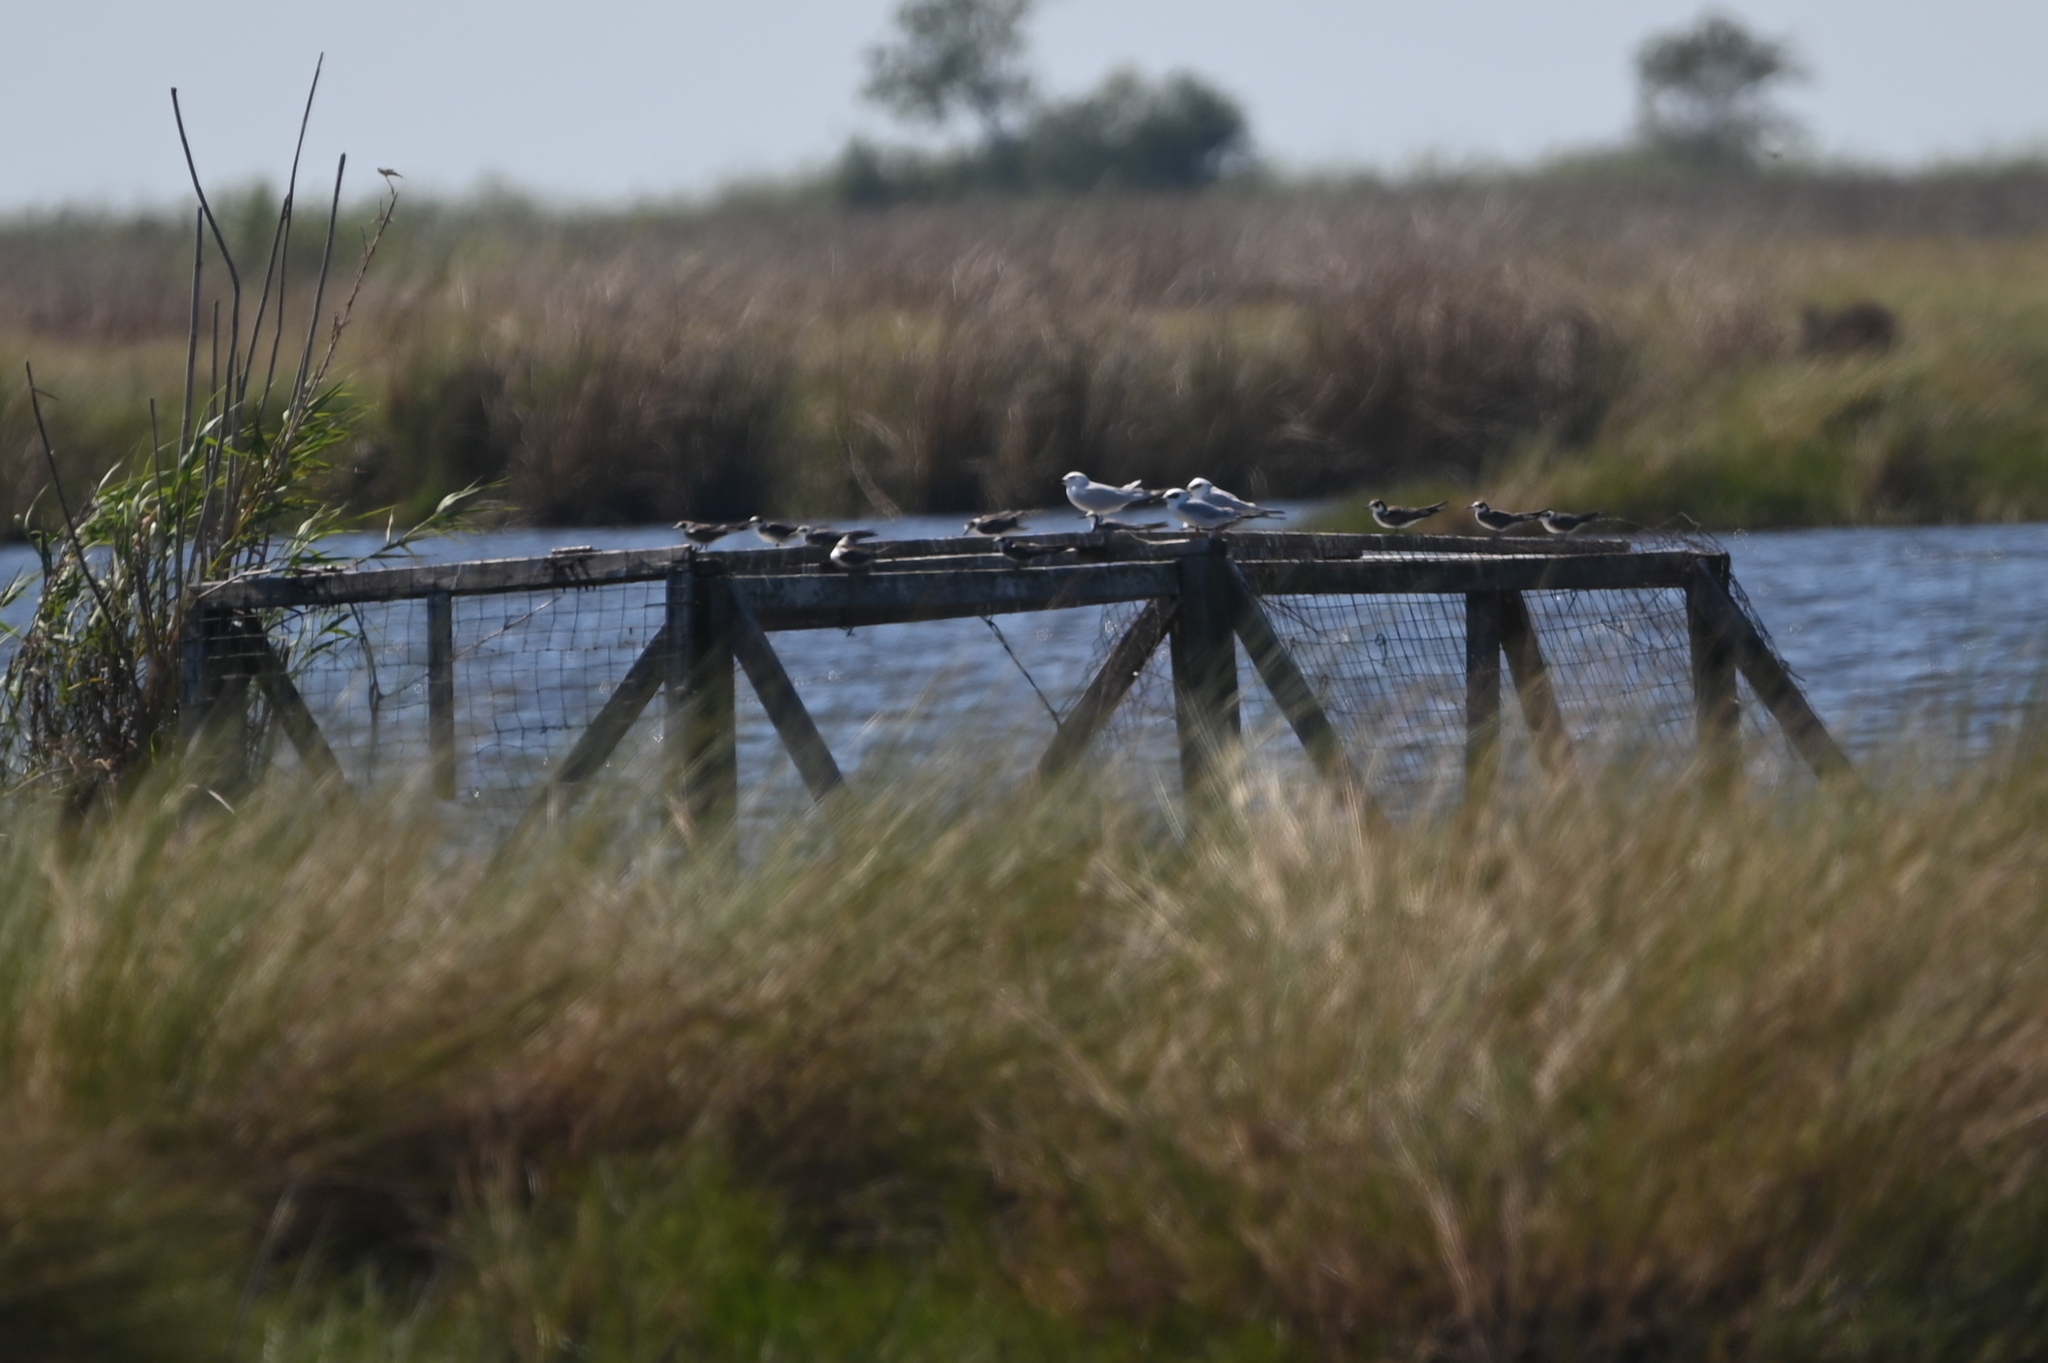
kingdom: Animalia
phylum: Chordata
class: Aves
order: Charadriiformes
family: Laridae
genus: Chlidonias
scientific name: Chlidonias niger
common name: Black tern
